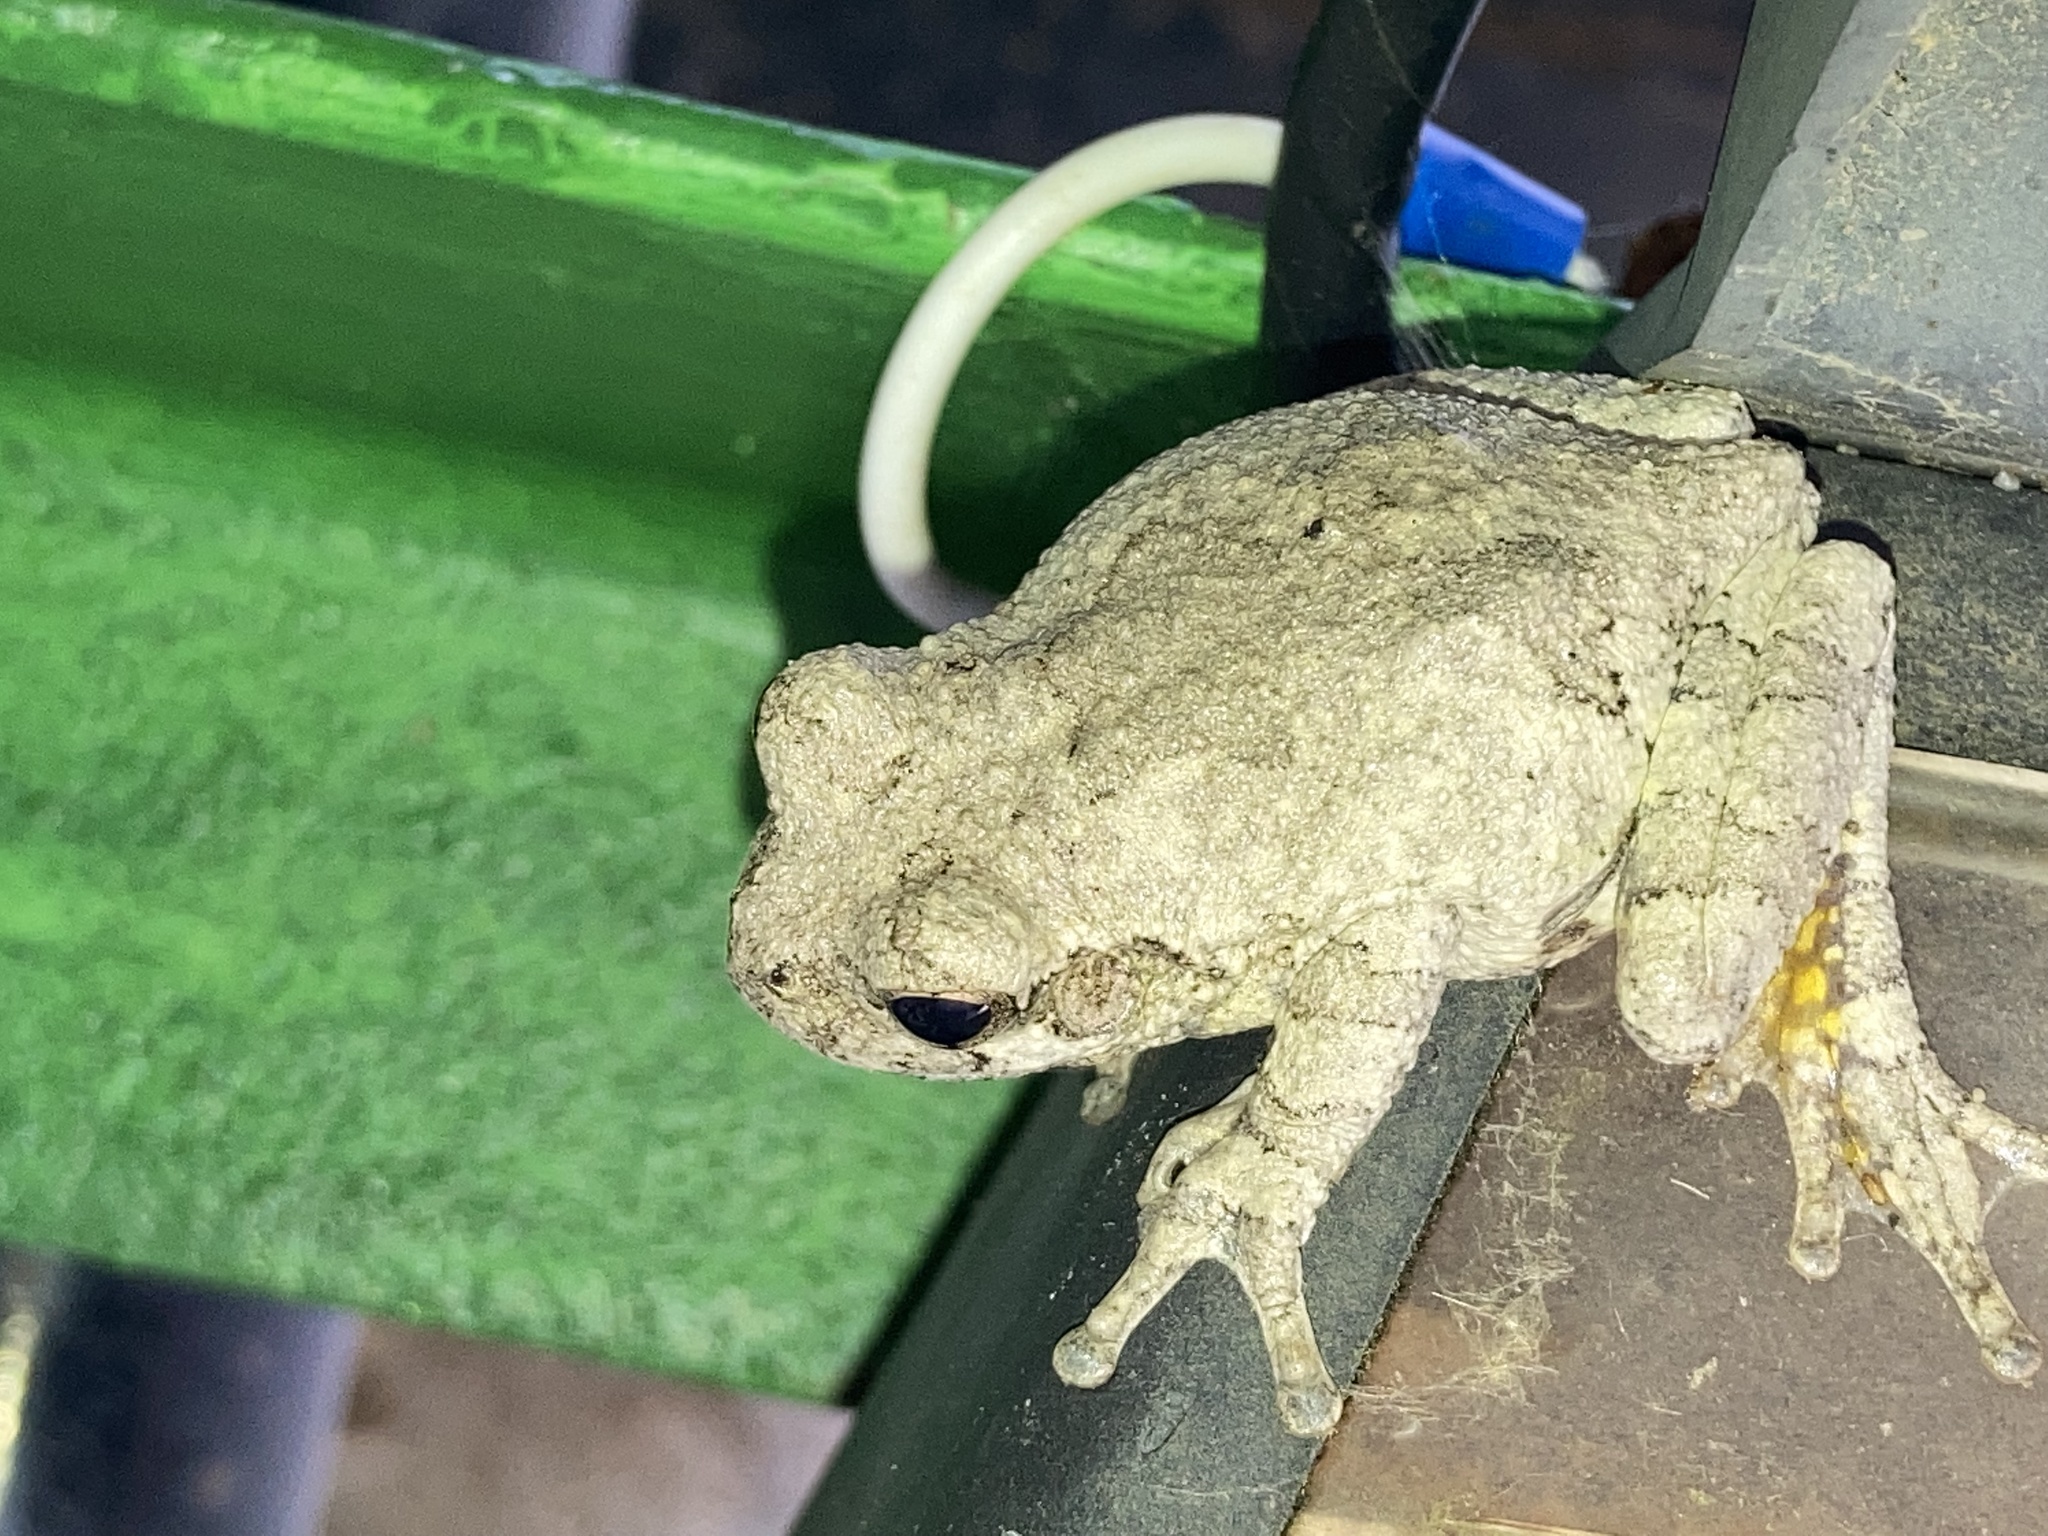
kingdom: Animalia
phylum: Chordata
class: Amphibia
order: Anura
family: Hylidae
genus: Dryophytes
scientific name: Dryophytes chrysoscelis
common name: Cope's gray treefrog
